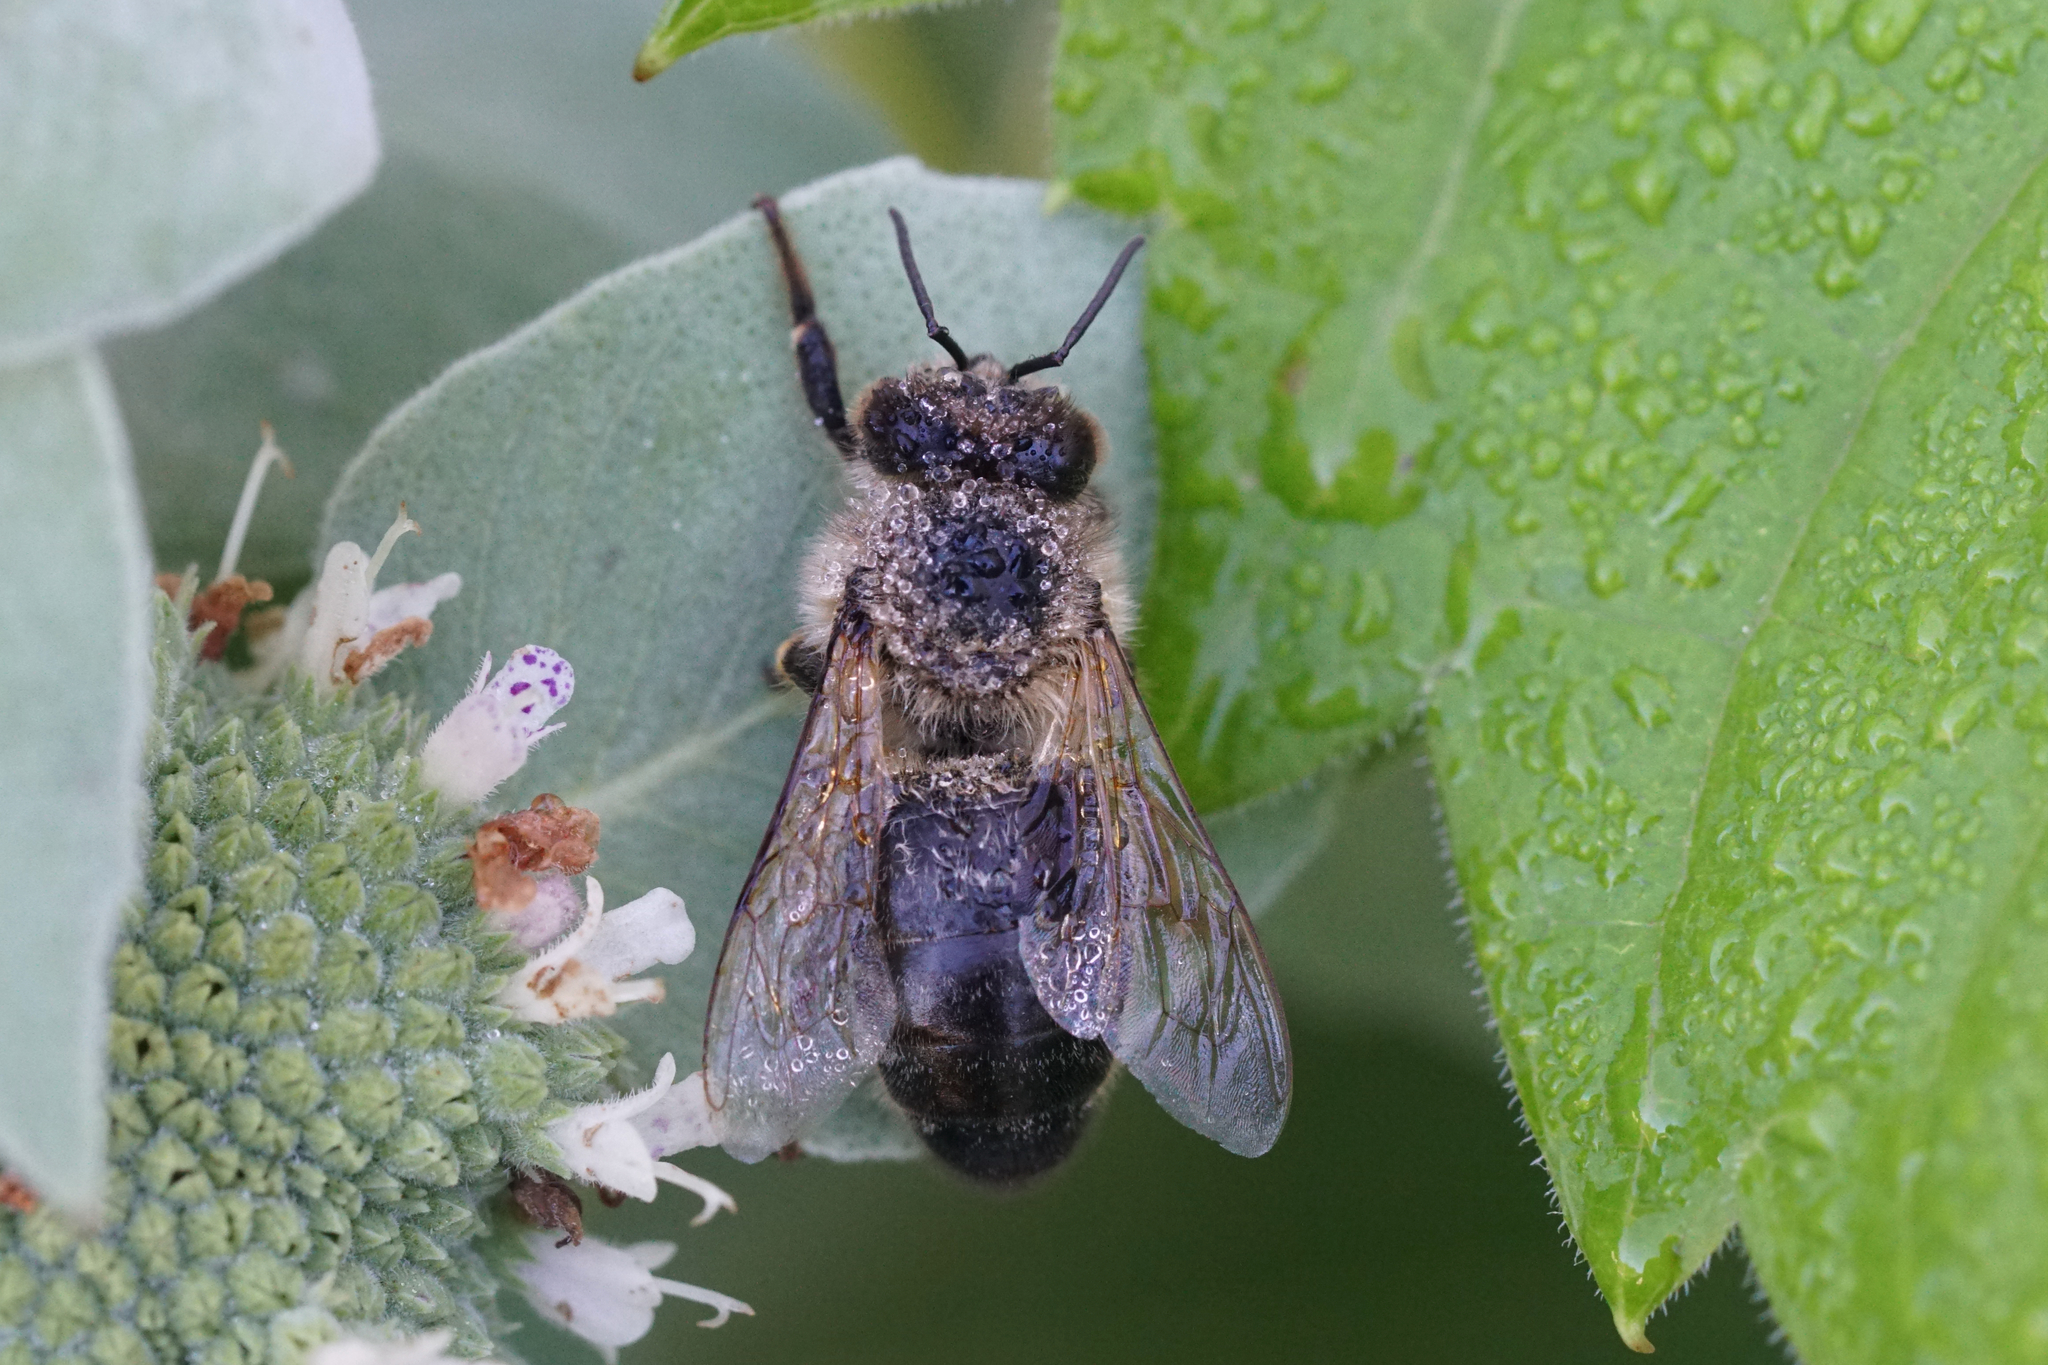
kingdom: Animalia
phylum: Arthropoda
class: Insecta
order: Hymenoptera
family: Apidae
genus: Apis
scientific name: Apis mellifera
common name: Honey bee
